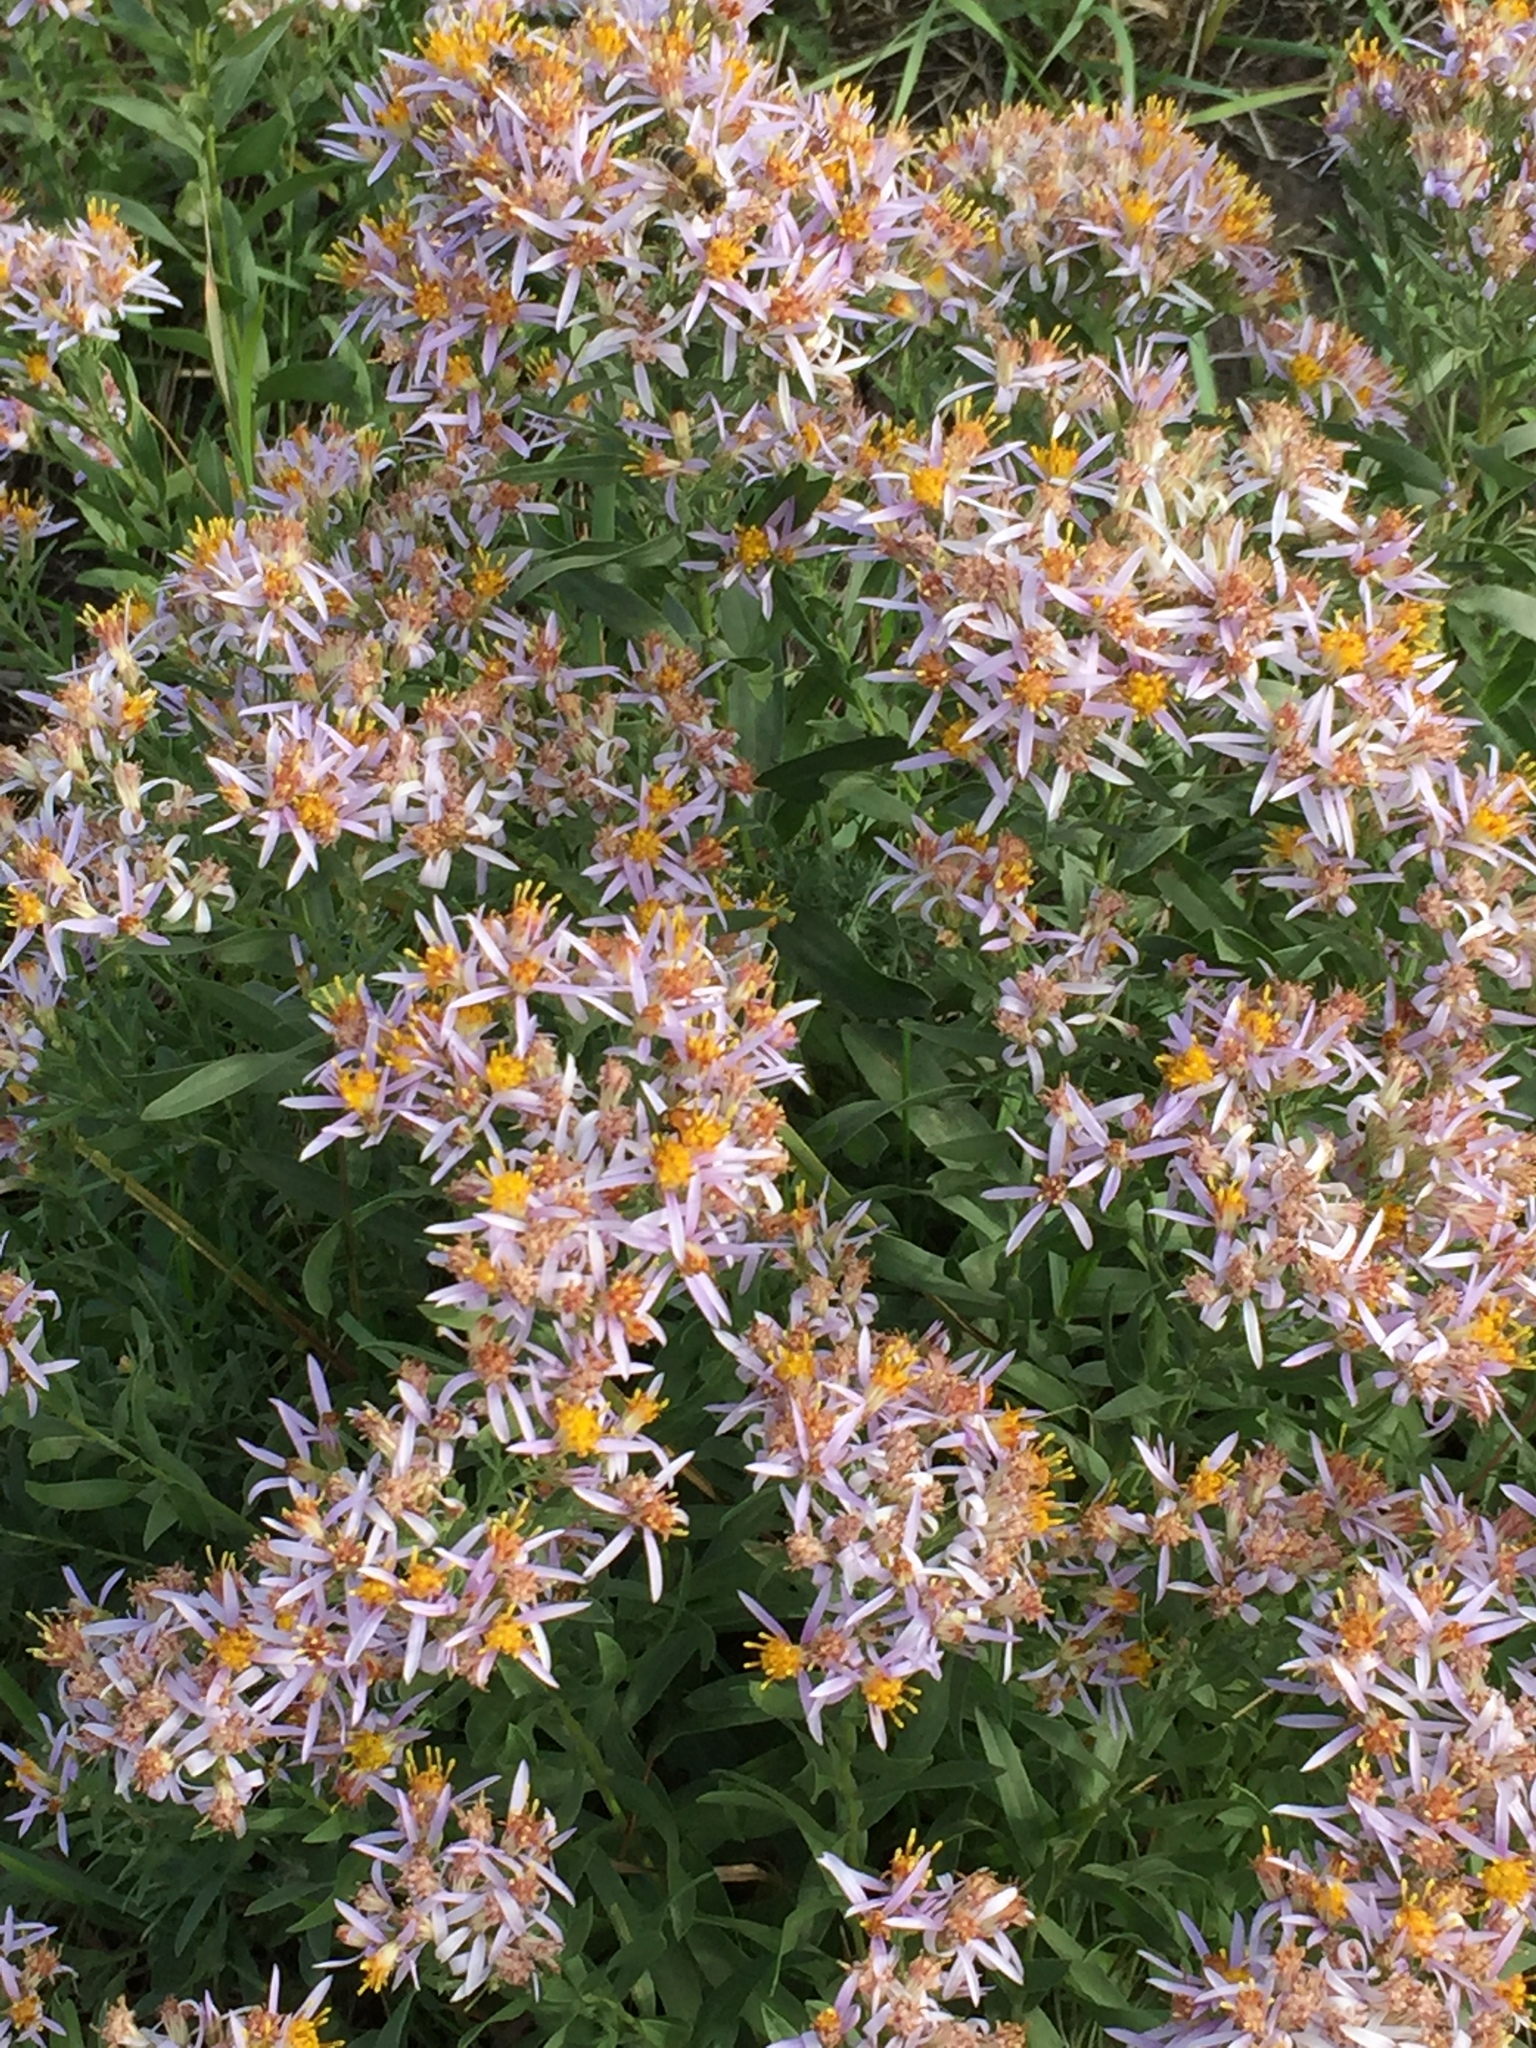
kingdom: Plantae
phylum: Tracheophyta
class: Magnoliopsida
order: Asterales
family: Asteraceae
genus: Galatella
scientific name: Galatella sedifolia
